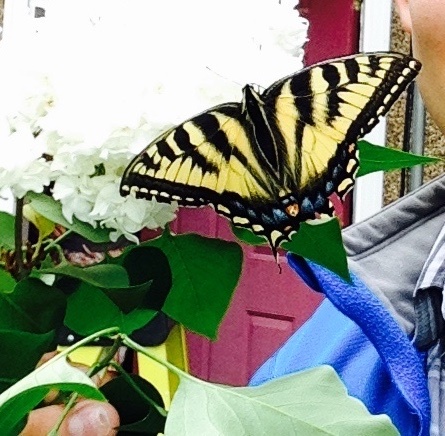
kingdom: Animalia
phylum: Arthropoda
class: Insecta
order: Lepidoptera
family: Papilionidae
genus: Papilio
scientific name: Papilio canadensis
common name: Canadian tiger swallowtail
